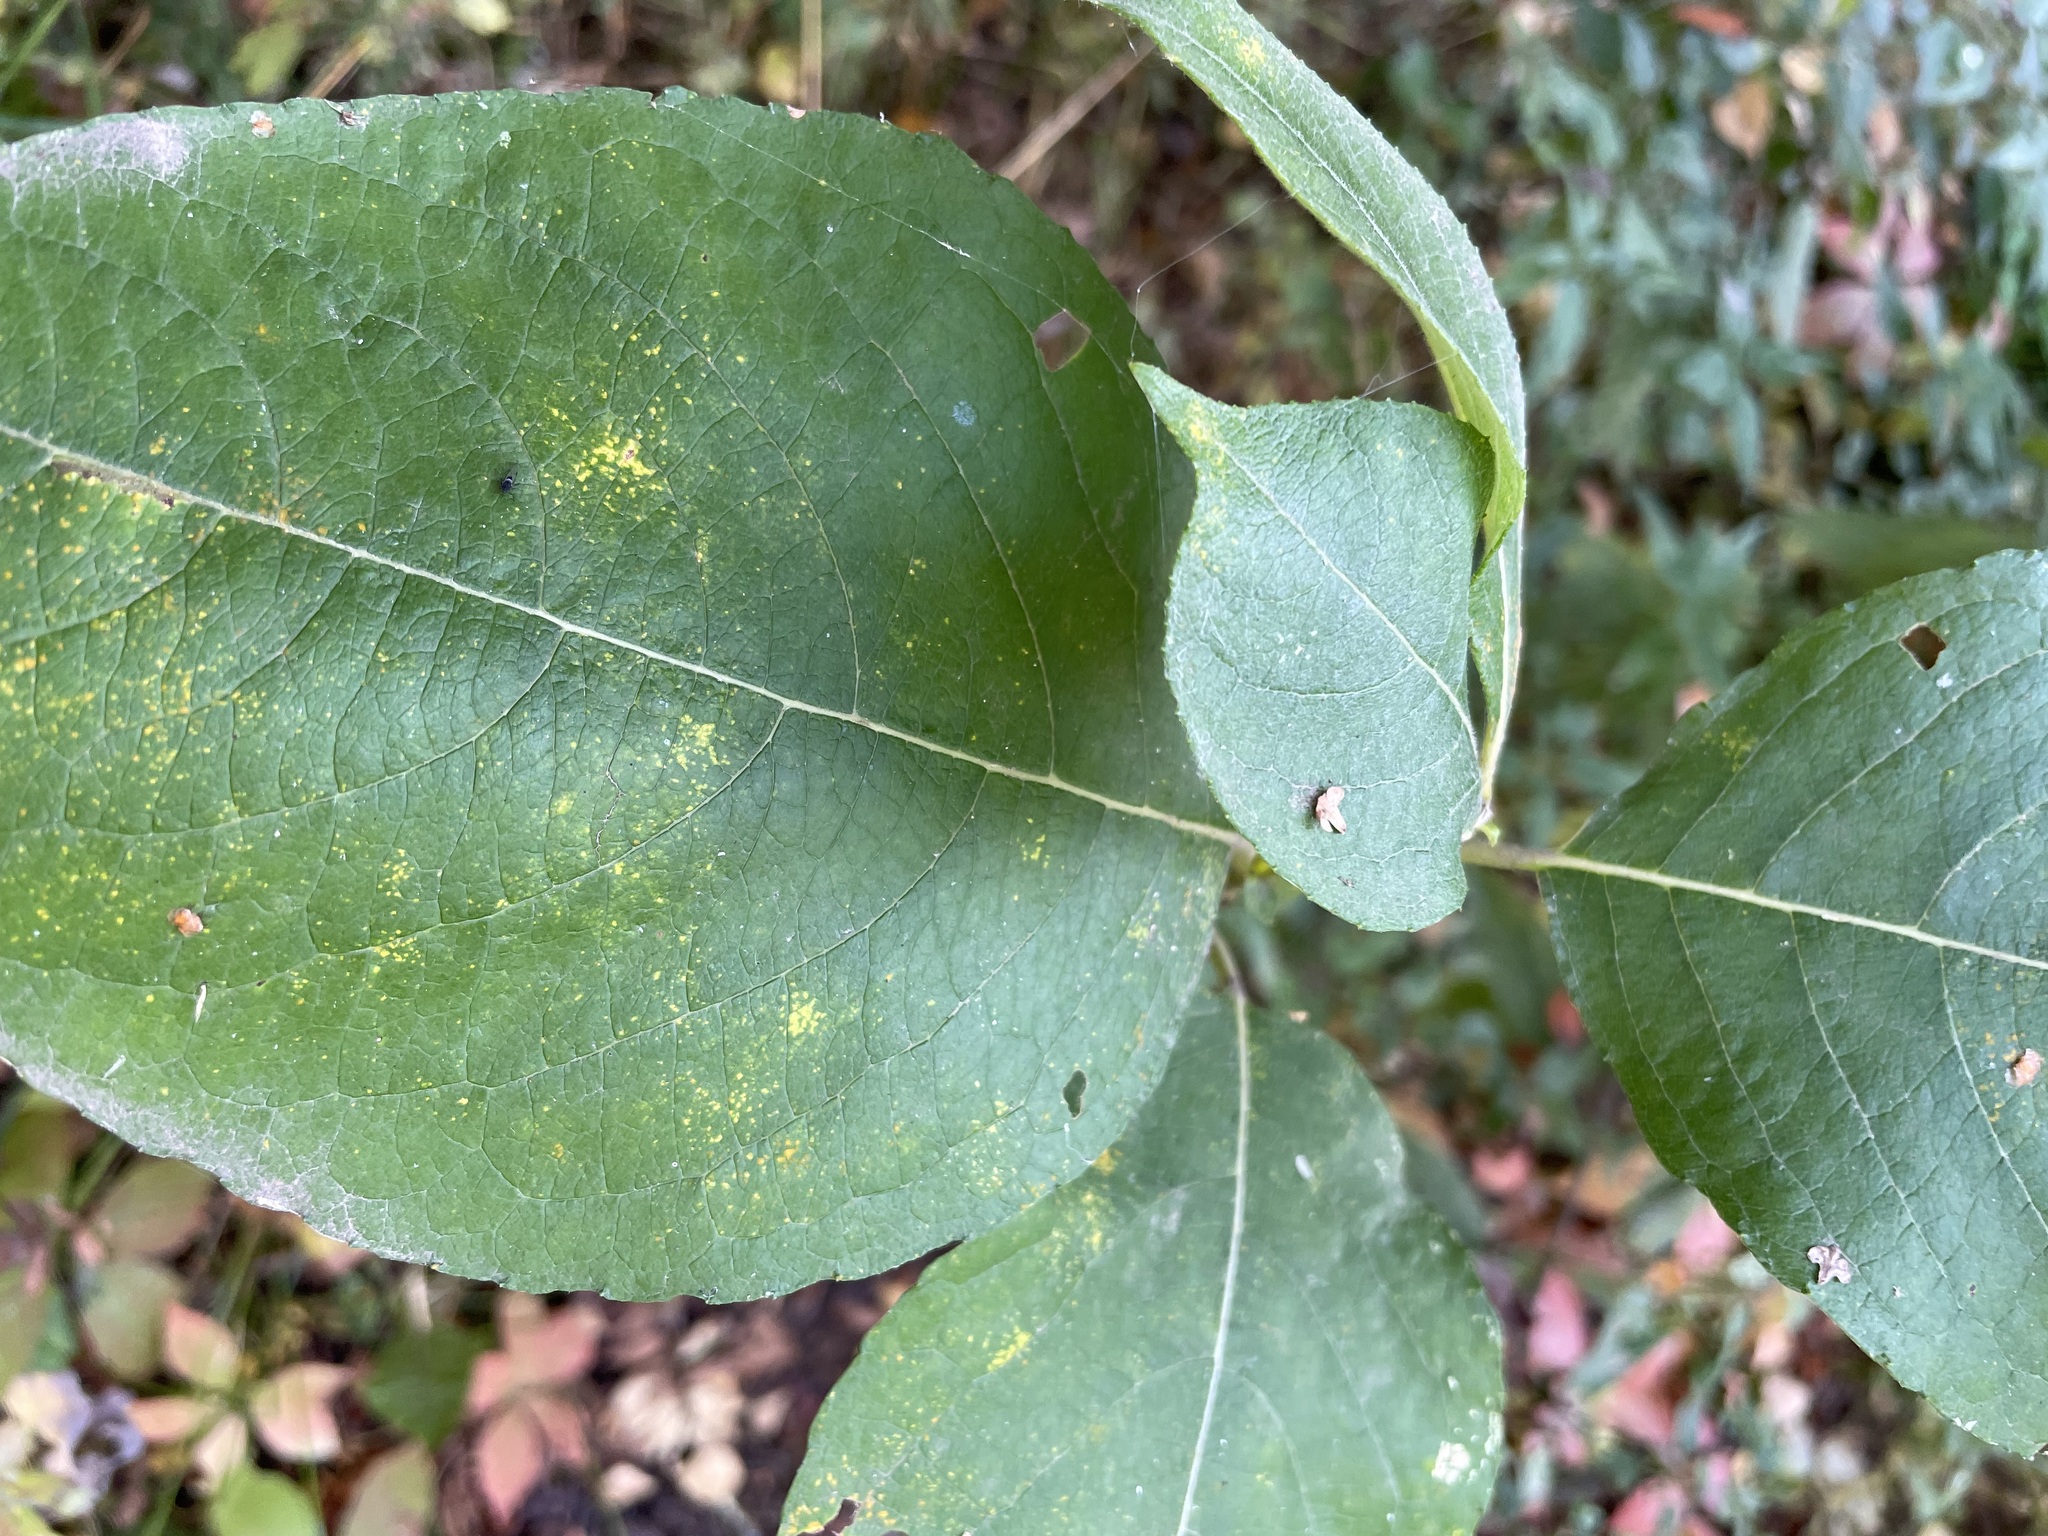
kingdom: Plantae
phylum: Tracheophyta
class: Magnoliopsida
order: Malpighiales
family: Salicaceae
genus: Salix
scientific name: Salix caprea
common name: Goat willow
